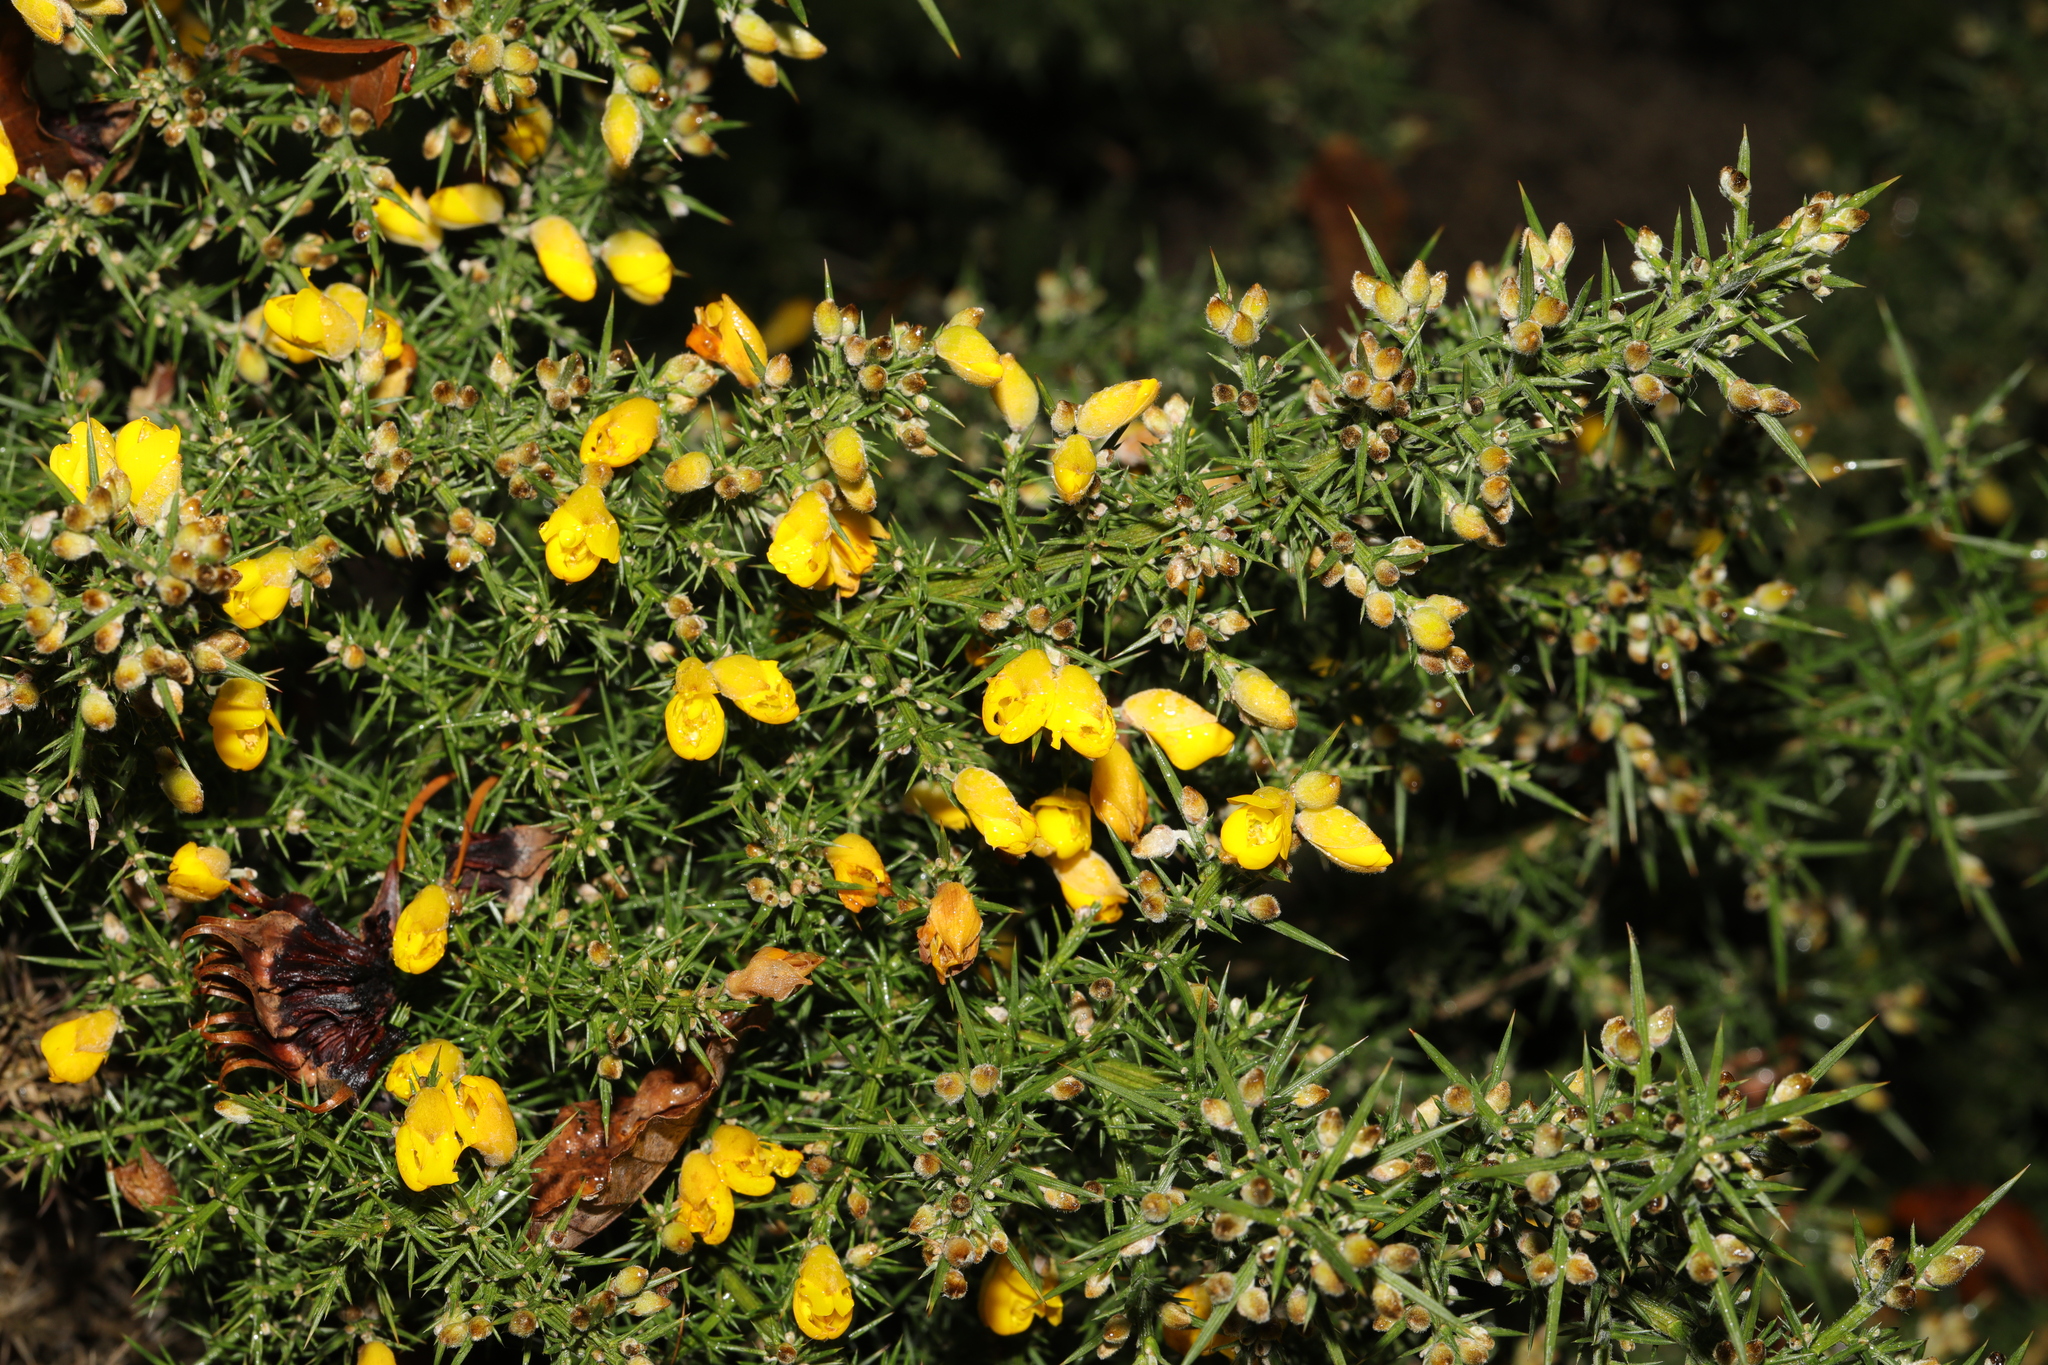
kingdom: Plantae
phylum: Tracheophyta
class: Magnoliopsida
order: Fabales
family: Fabaceae
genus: Ulex
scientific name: Ulex europaeus
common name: Common gorse
